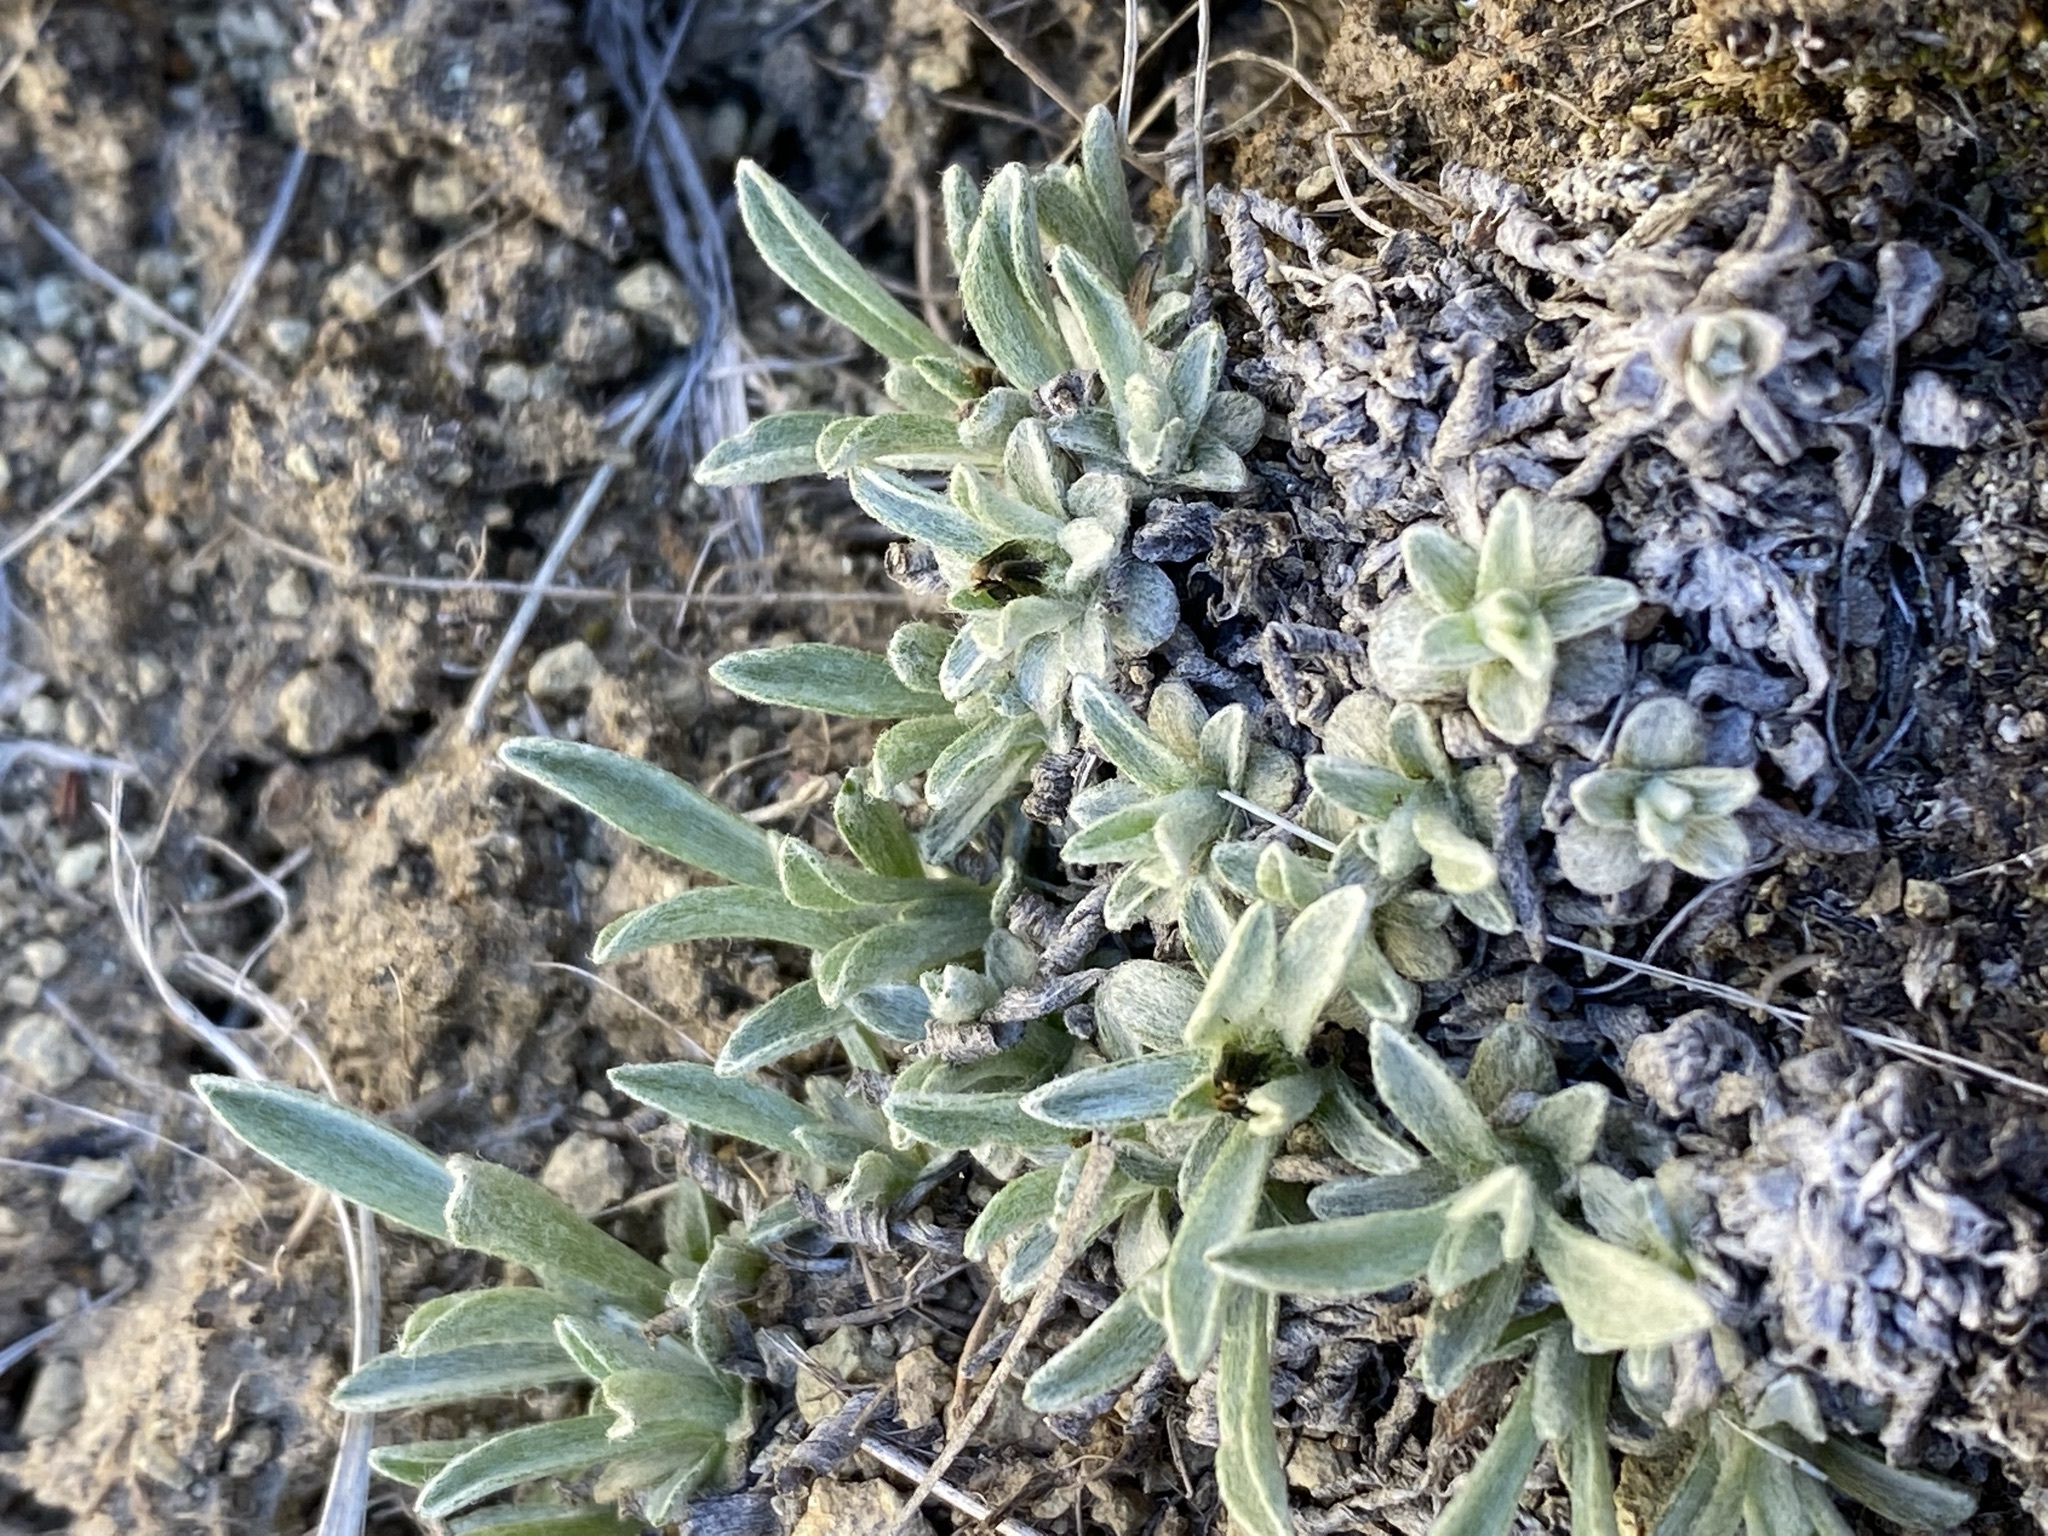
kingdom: Plantae
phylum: Tracheophyta
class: Magnoliopsida
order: Asterales
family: Asteraceae
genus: Antennaria
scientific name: Antennaria dimorpha
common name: Cushion pussytoes
